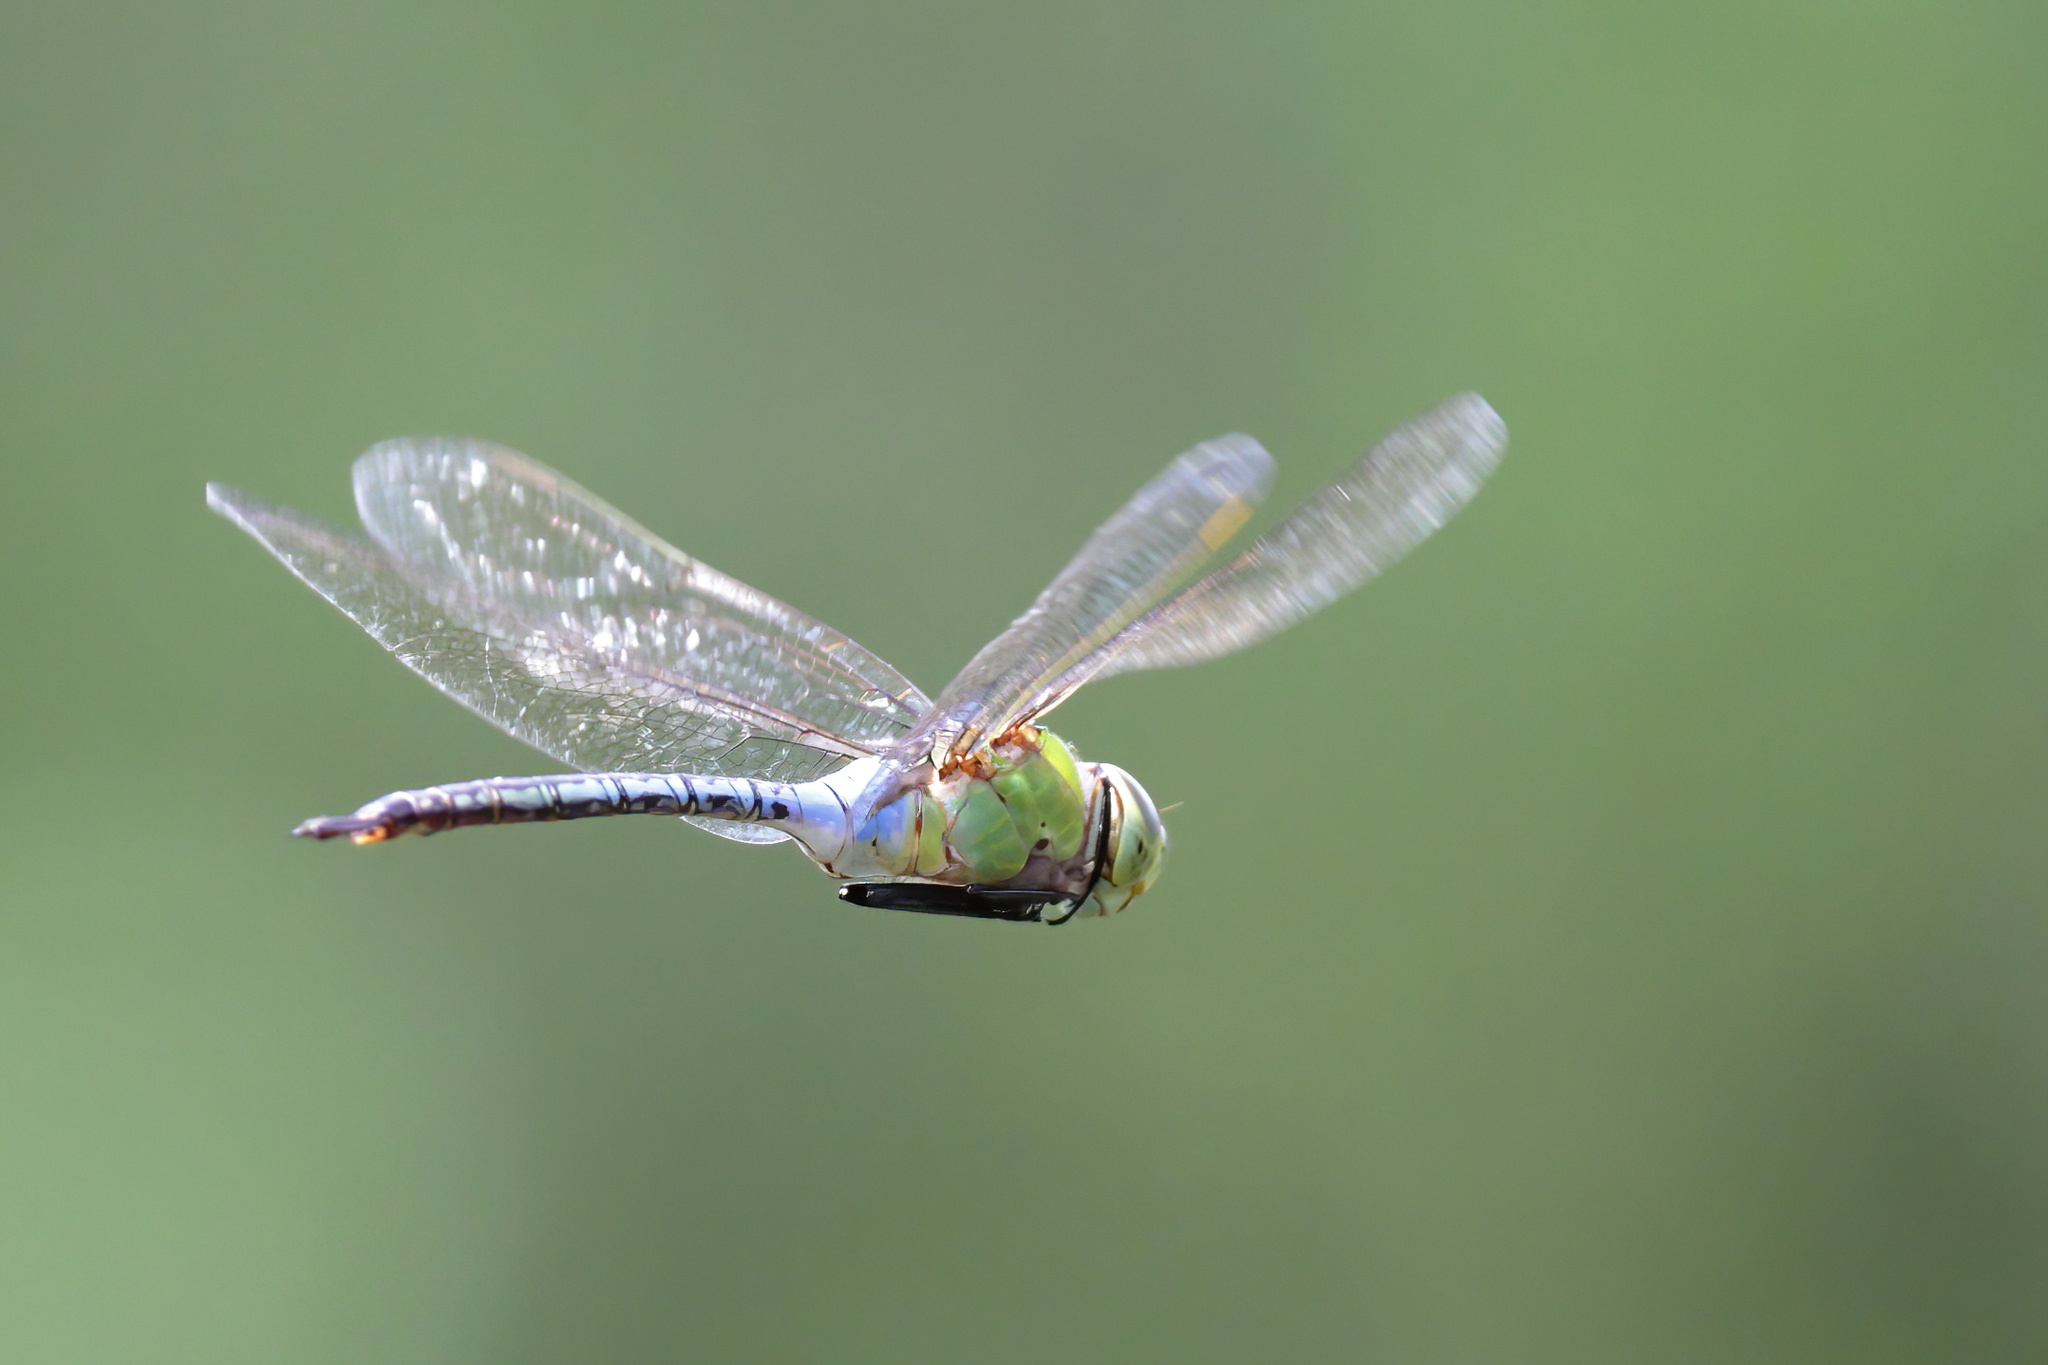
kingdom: Animalia
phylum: Arthropoda
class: Insecta
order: Odonata
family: Aeshnidae
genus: Anax
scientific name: Anax junius
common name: Common green darner
